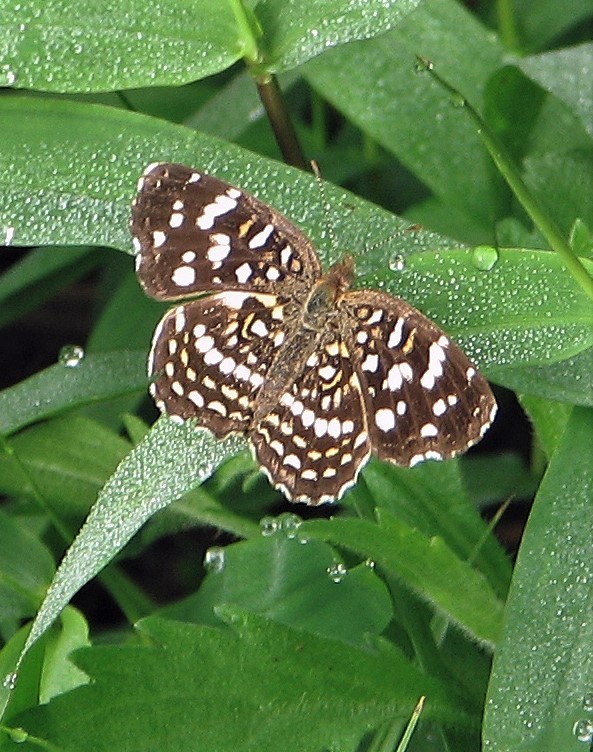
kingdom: Animalia
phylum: Arthropoda
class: Insecta
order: Lepidoptera
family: Nymphalidae
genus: Anthanassa
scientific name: Anthanassa hermas
